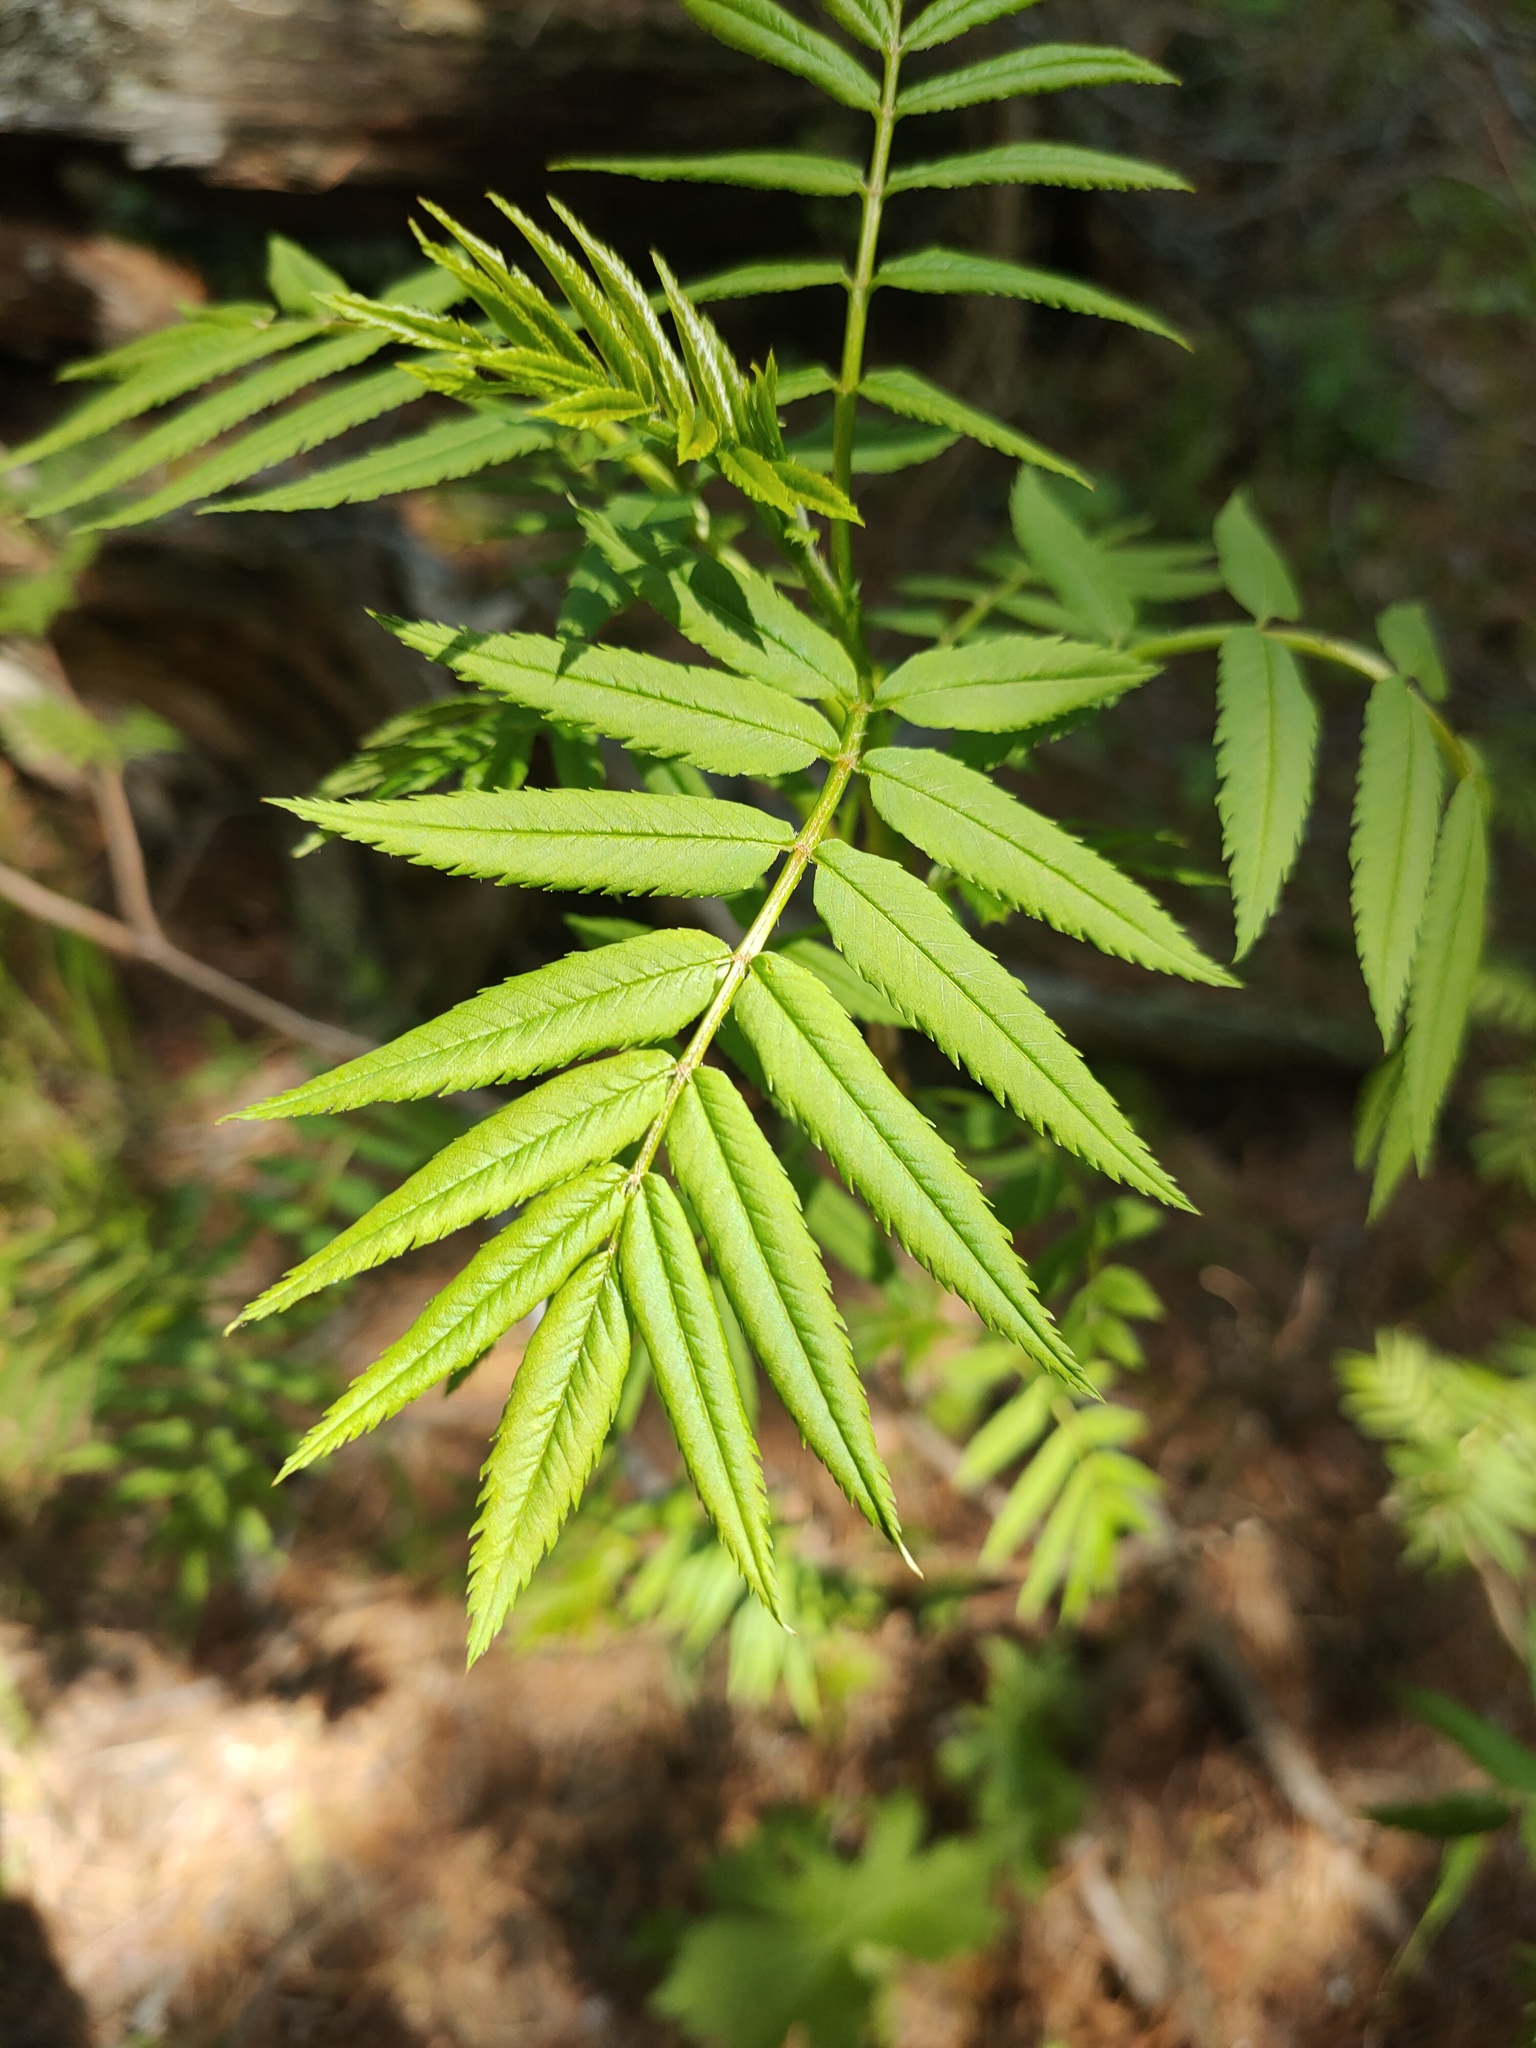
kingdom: Plantae
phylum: Tracheophyta
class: Magnoliopsida
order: Rosales
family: Rosaceae
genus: Sorbaria
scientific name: Sorbaria sorbifolia
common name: False spiraea
